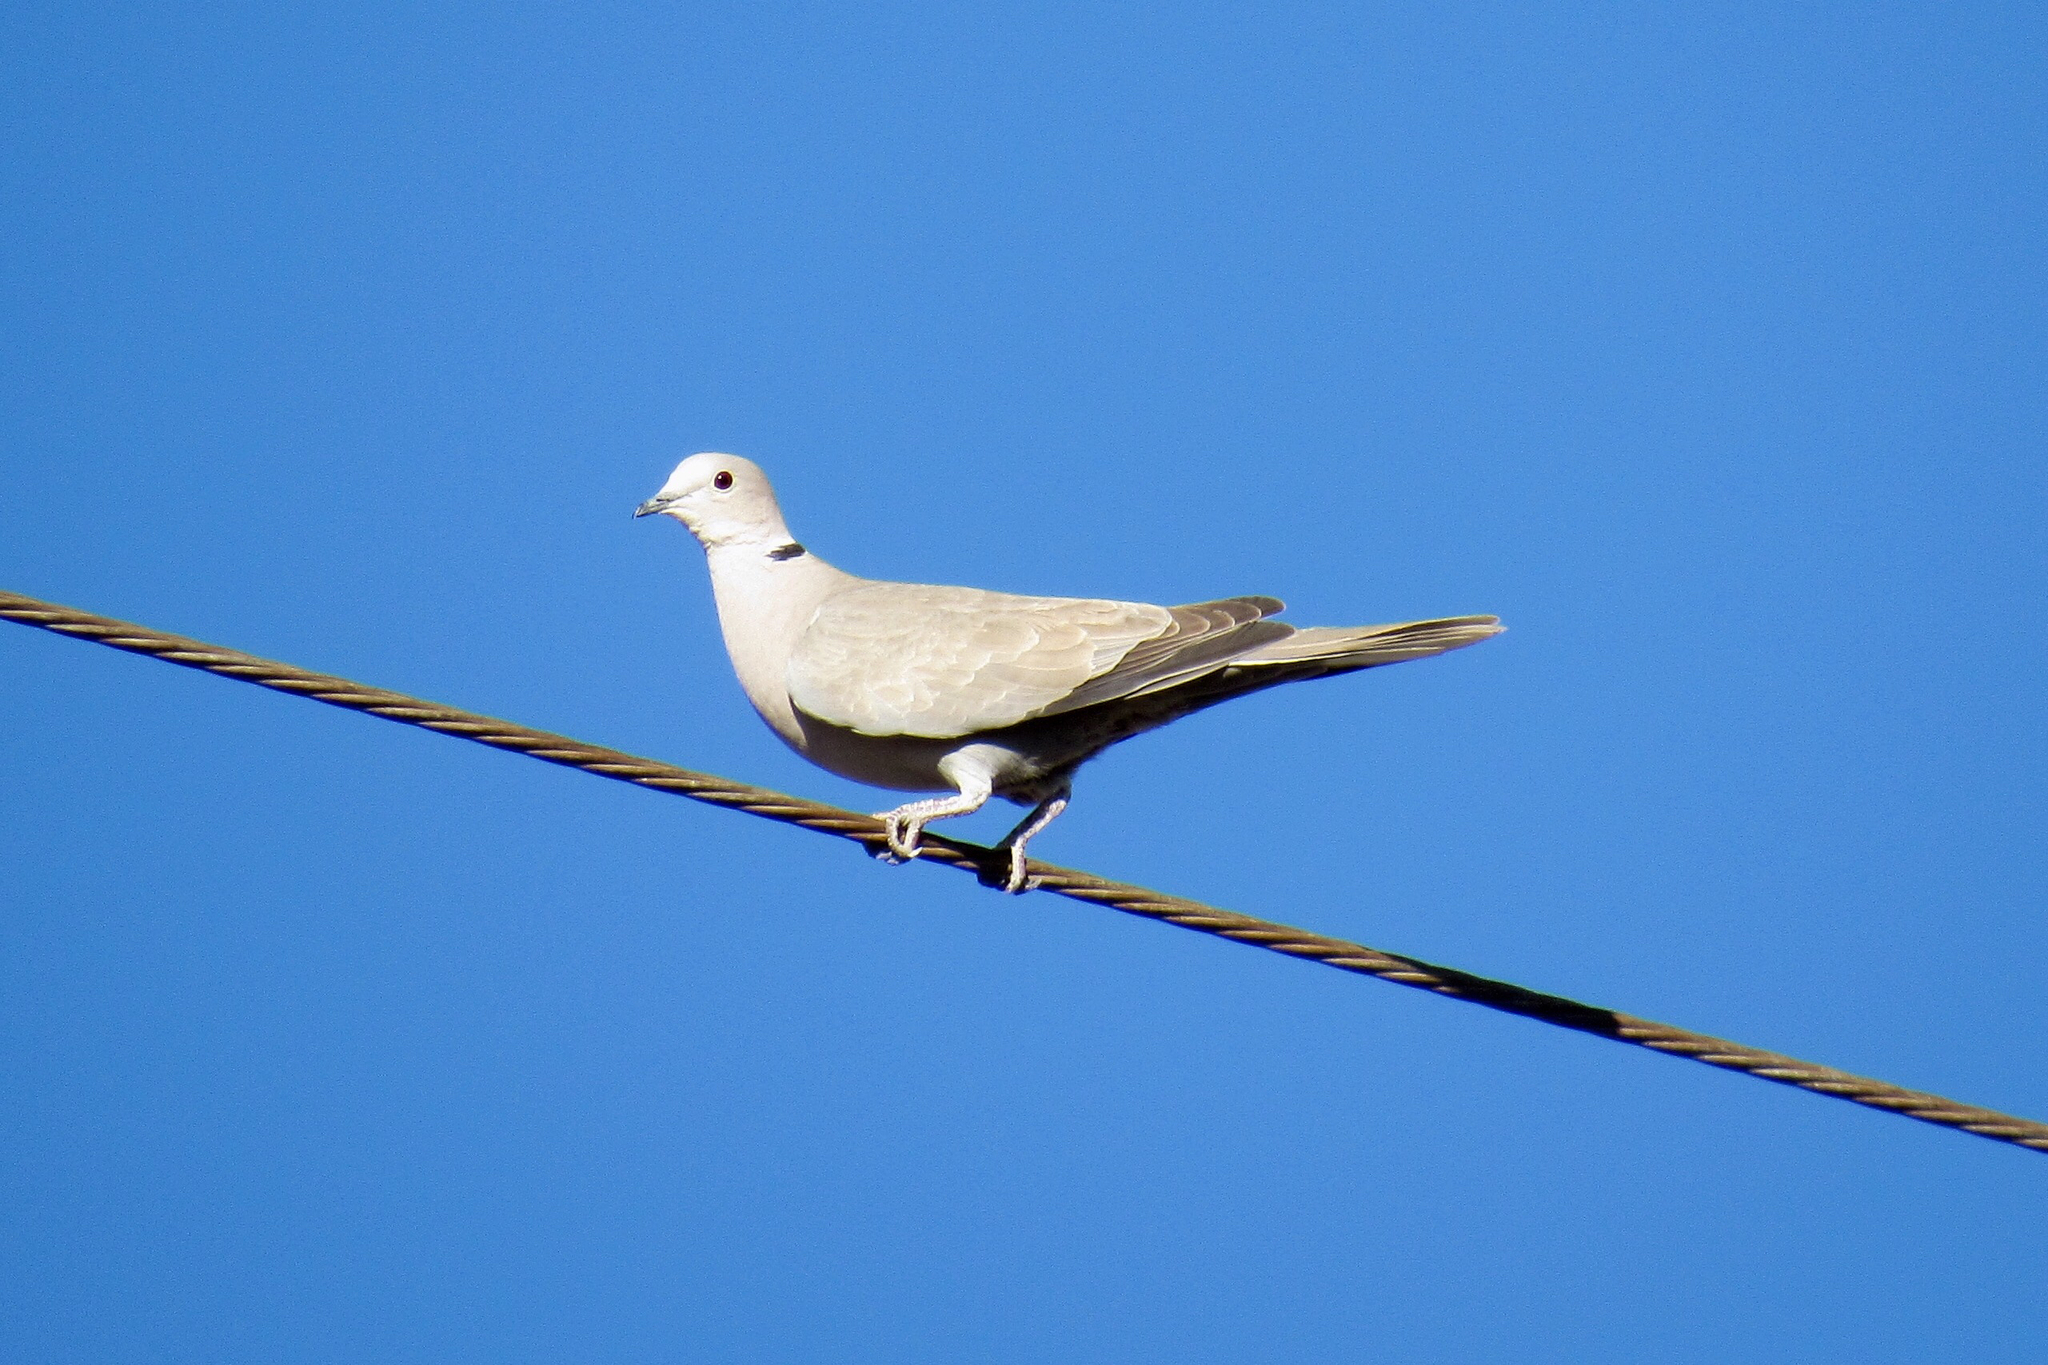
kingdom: Animalia
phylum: Chordata
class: Aves
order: Columbiformes
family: Columbidae
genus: Streptopelia
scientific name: Streptopelia decaocto
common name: Eurasian collared dove
